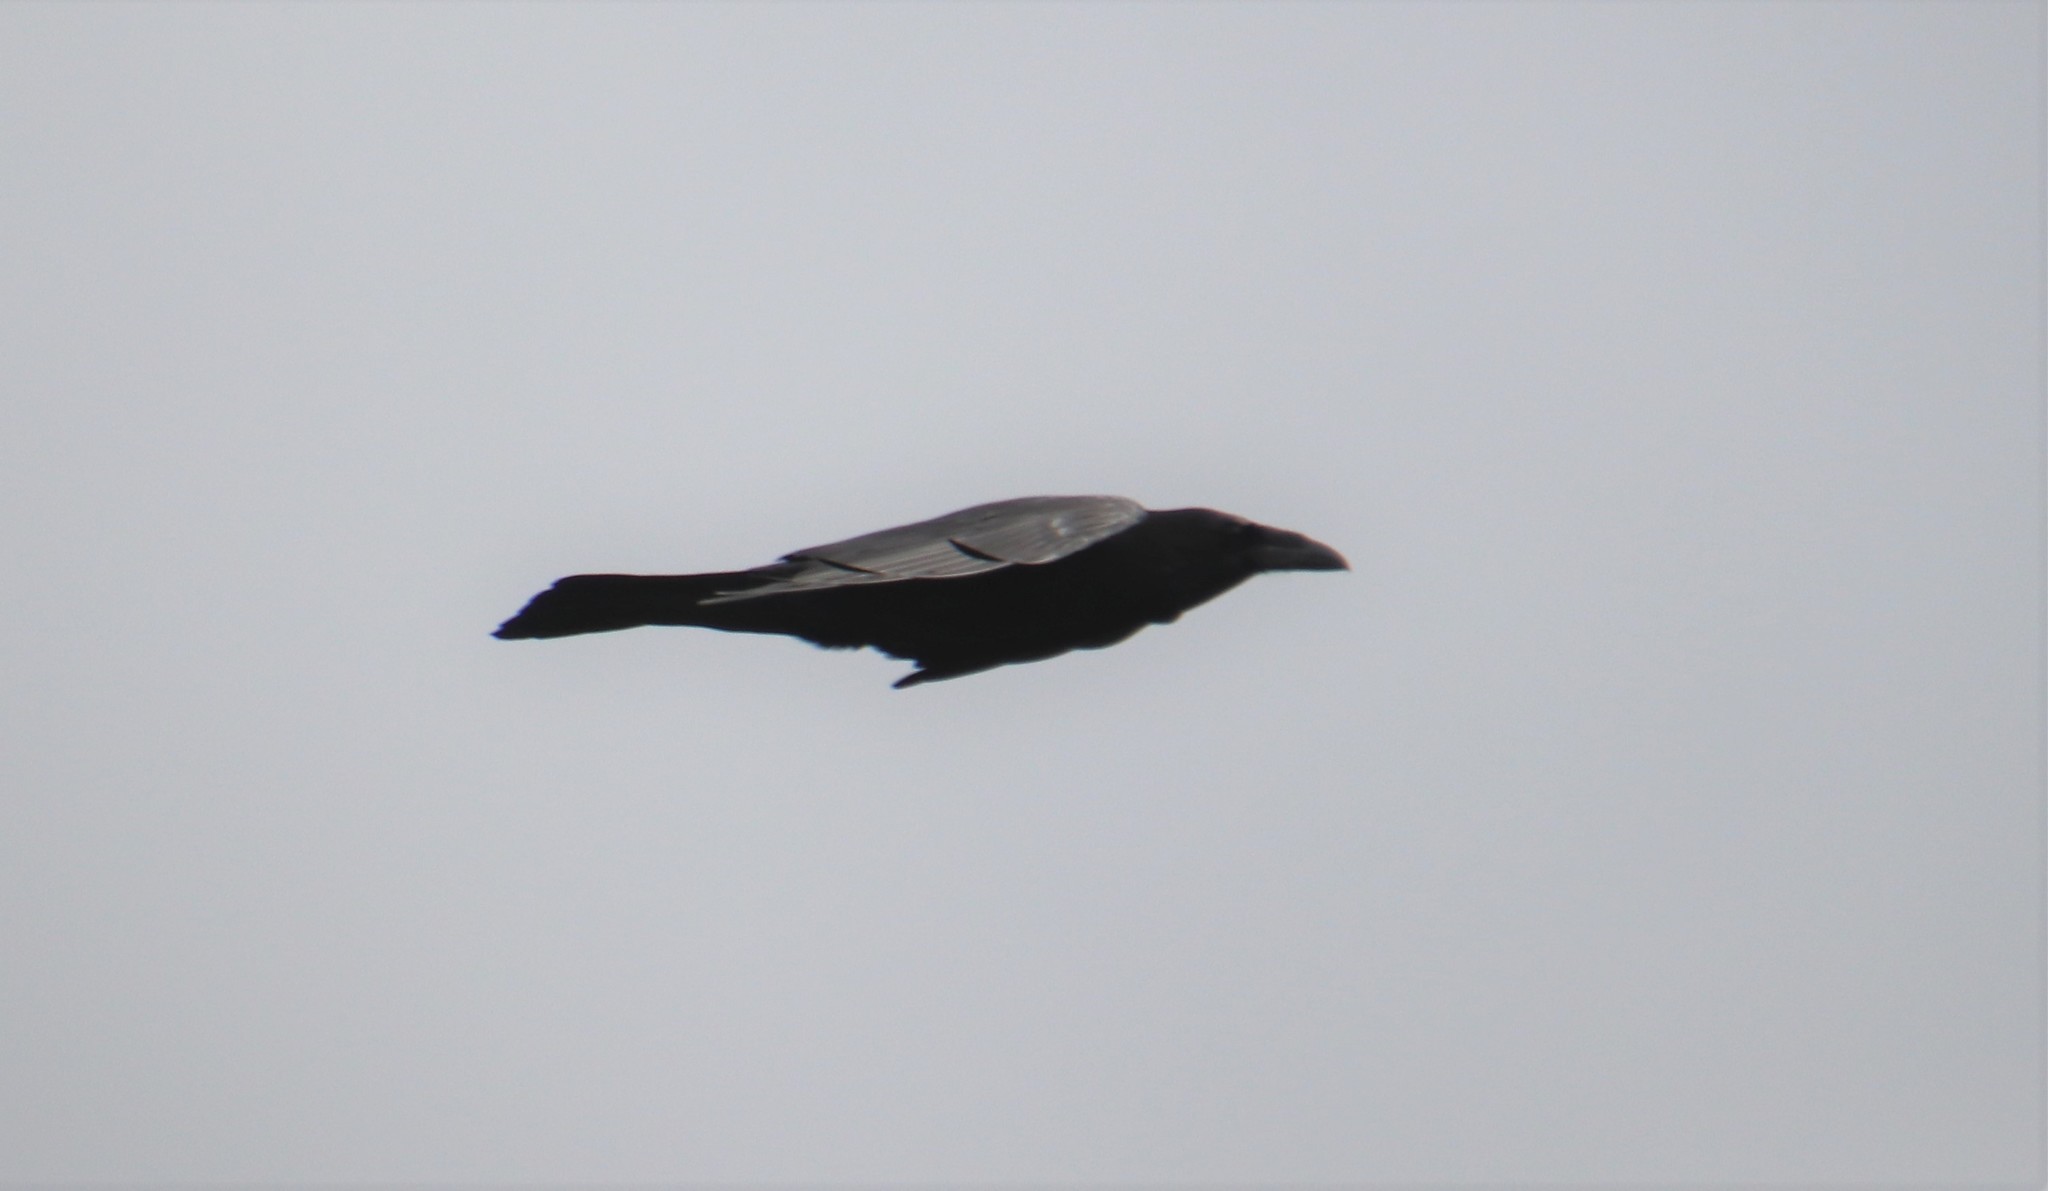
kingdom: Animalia
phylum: Chordata
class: Aves
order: Passeriformes
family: Corvidae
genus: Corvus
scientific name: Corvus corax
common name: Common raven
